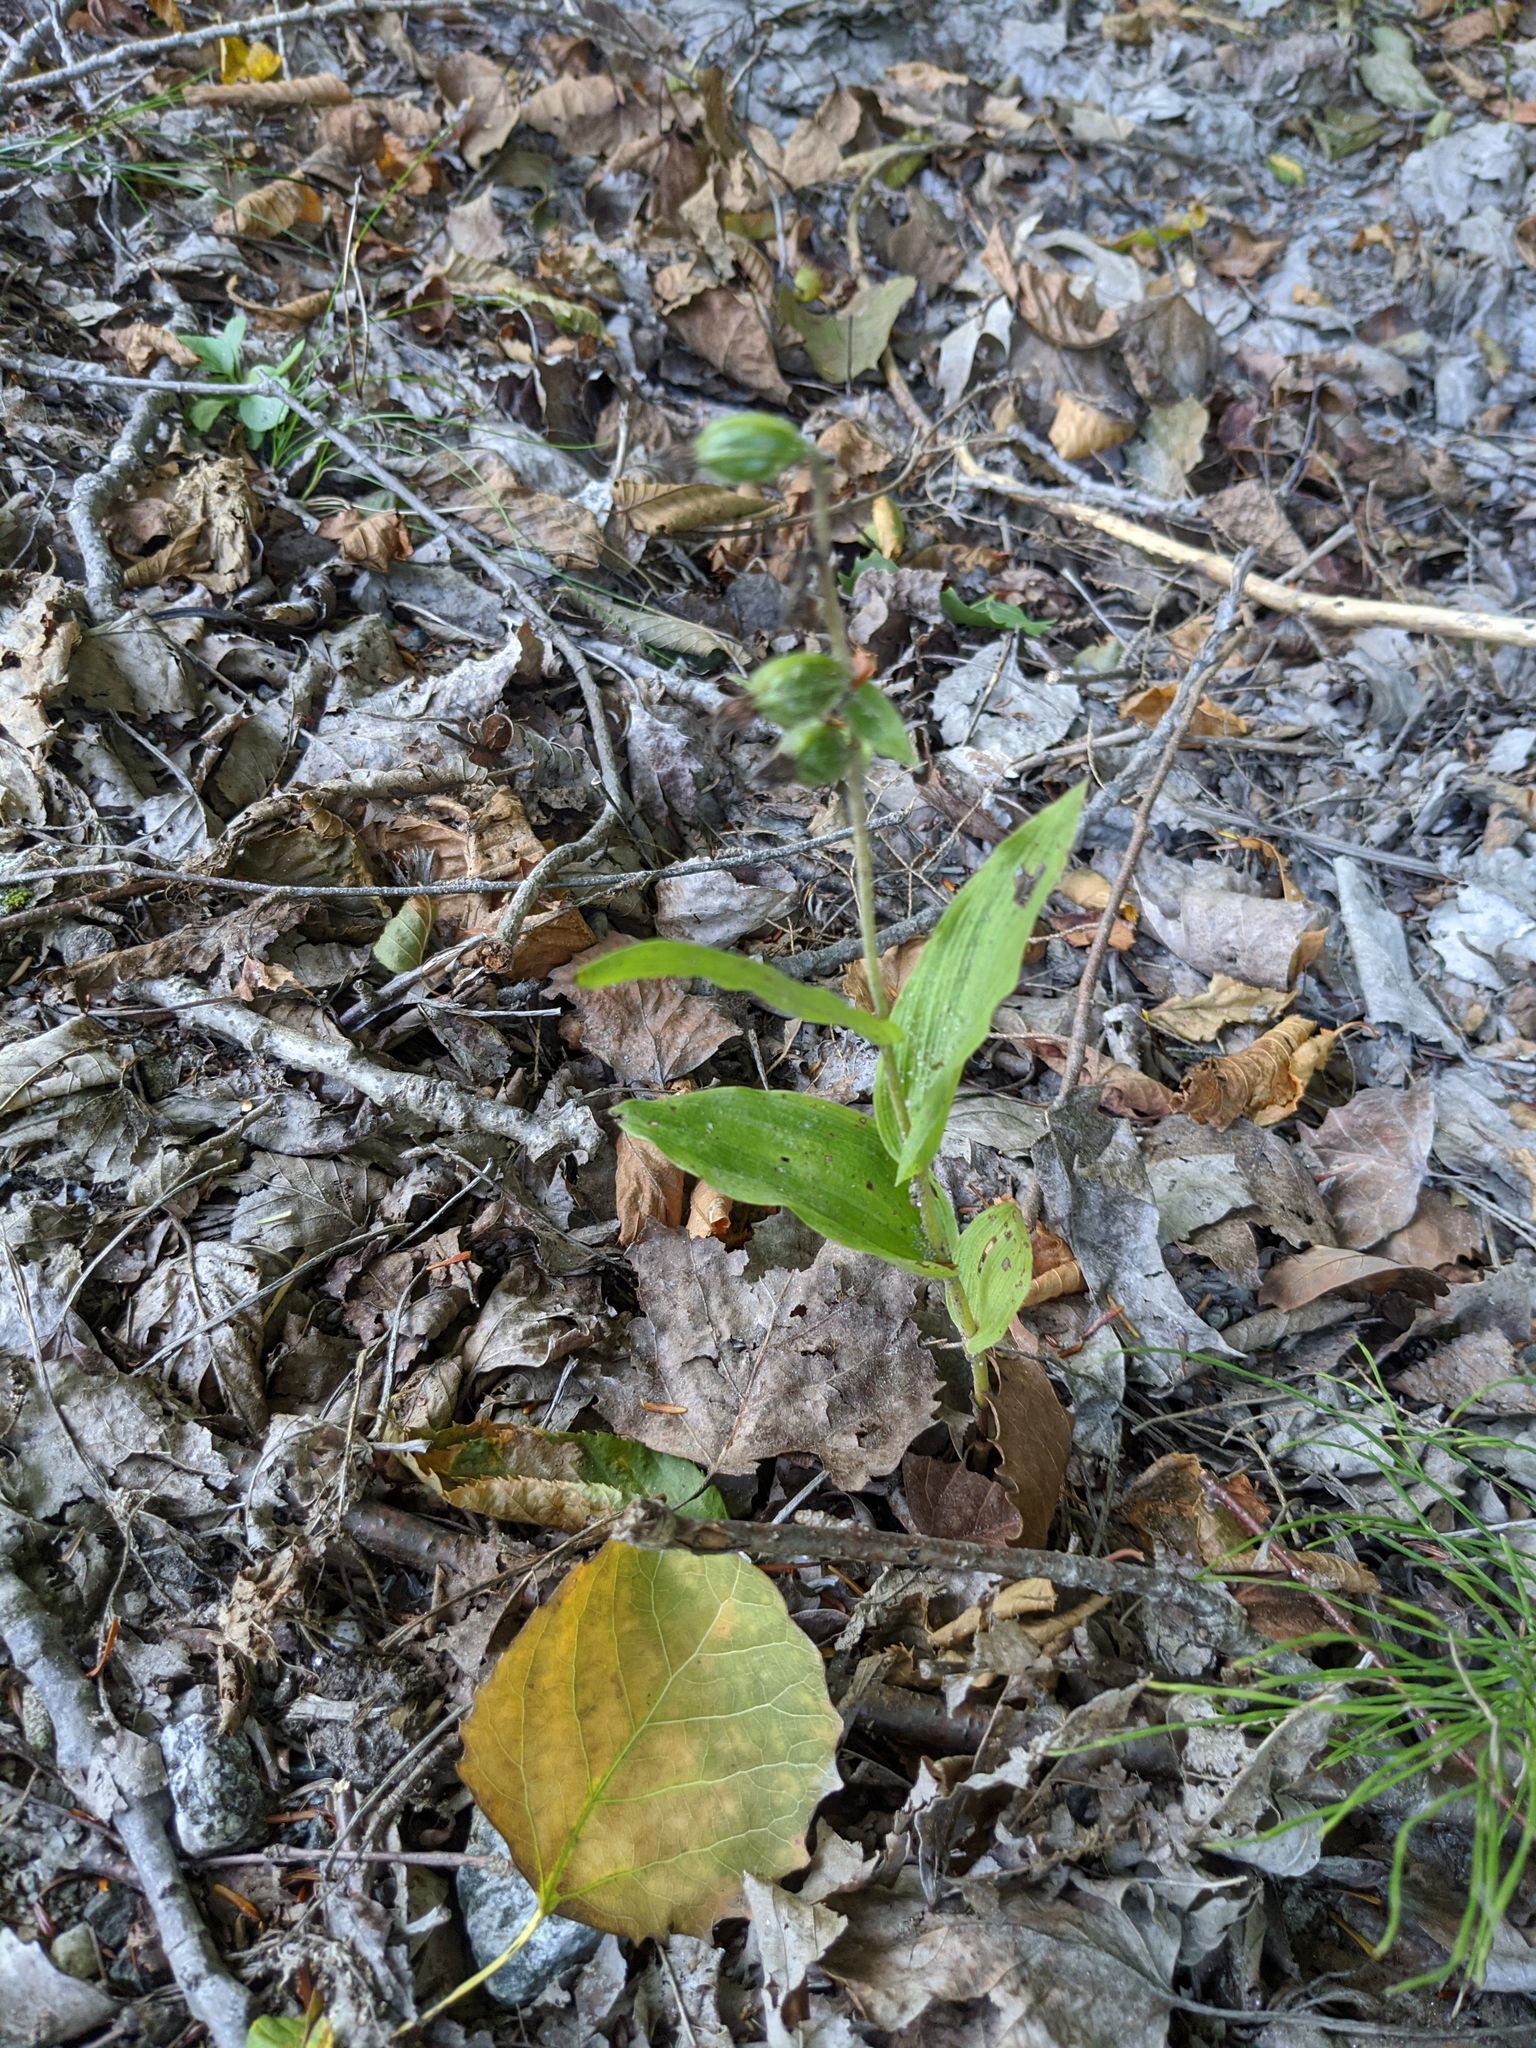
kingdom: Plantae
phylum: Tracheophyta
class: Liliopsida
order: Asparagales
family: Orchidaceae
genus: Epipactis
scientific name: Epipactis helleborine
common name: Broad-leaved helleborine
